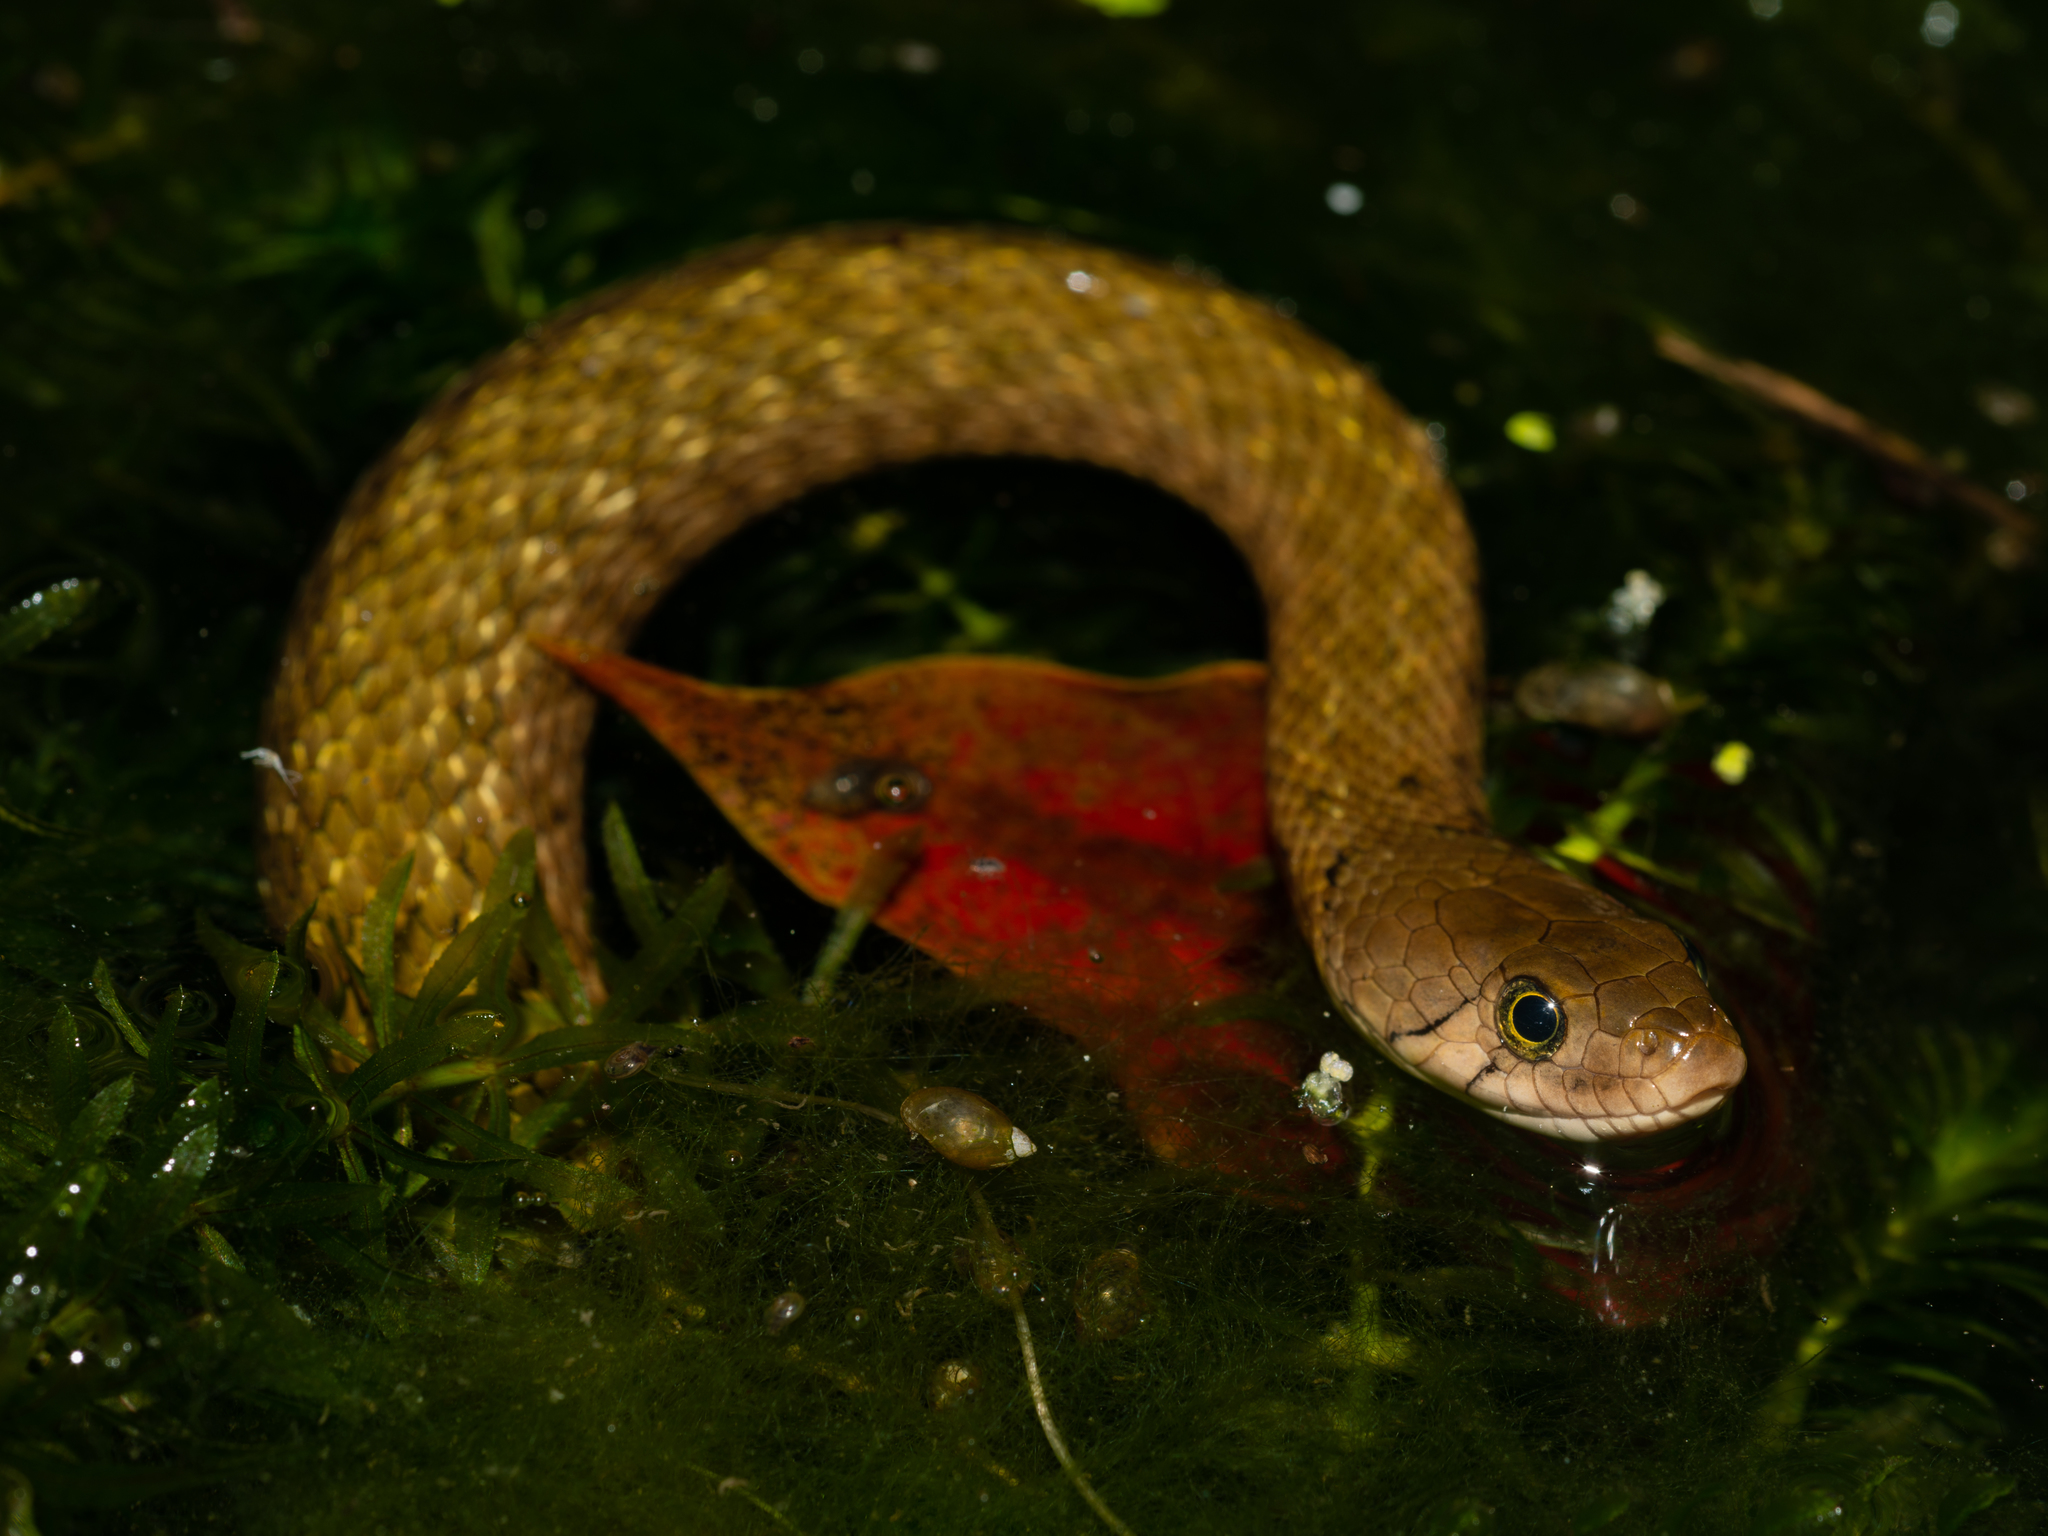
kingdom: Animalia
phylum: Chordata
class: Squamata
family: Colubridae
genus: Fowlea
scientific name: Fowlea flavipunctatus
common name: Yellow-spotted keelback
